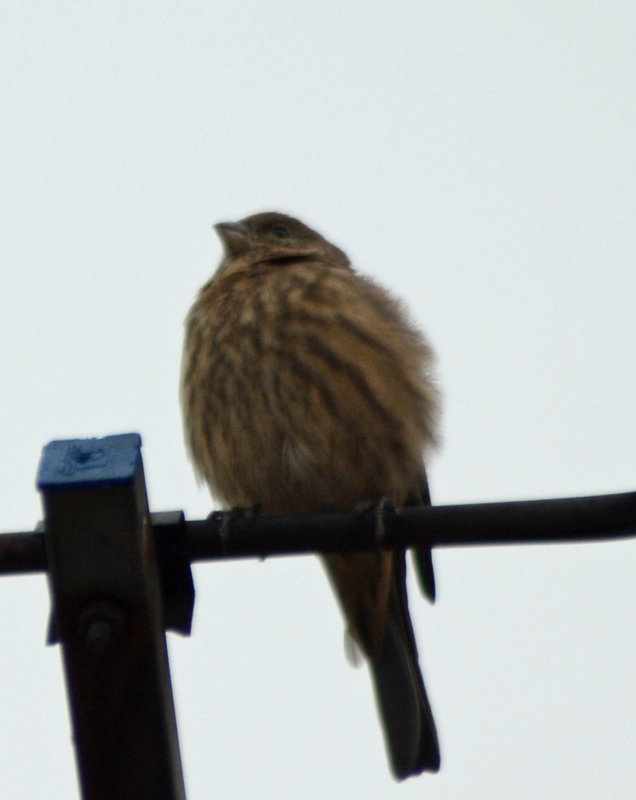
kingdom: Animalia
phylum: Chordata
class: Aves
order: Passeriformes
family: Fringillidae
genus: Haemorhous
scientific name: Haemorhous mexicanus
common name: House finch
